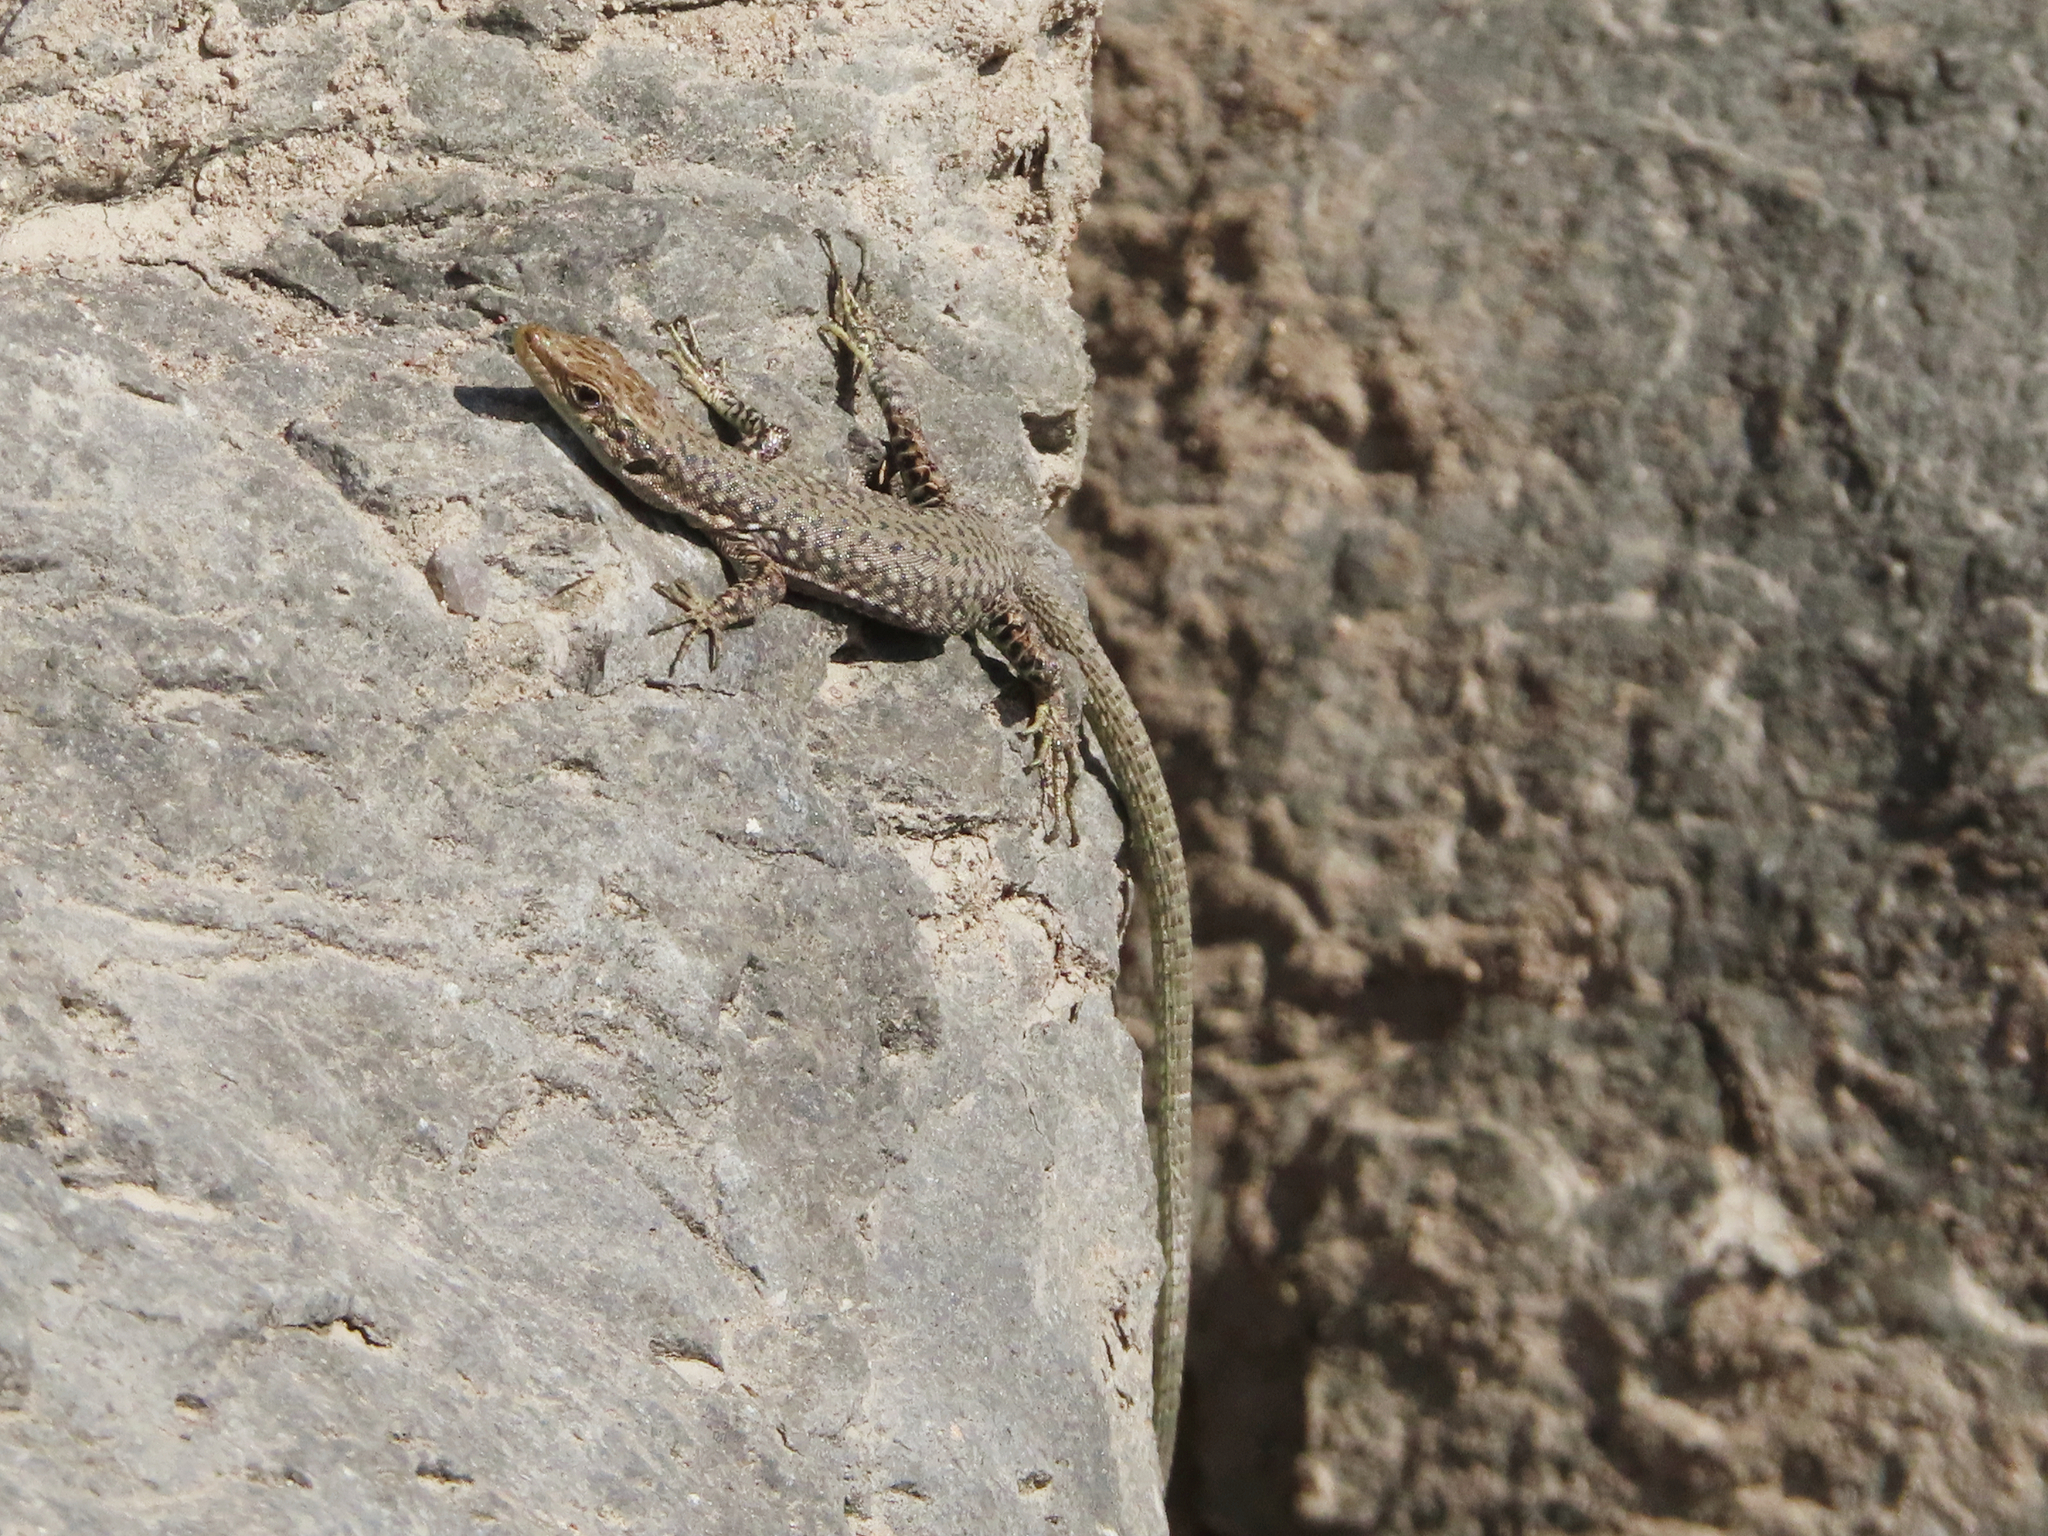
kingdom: Animalia
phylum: Chordata
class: Squamata
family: Lacertidae
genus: Darevskia
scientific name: Darevskia
